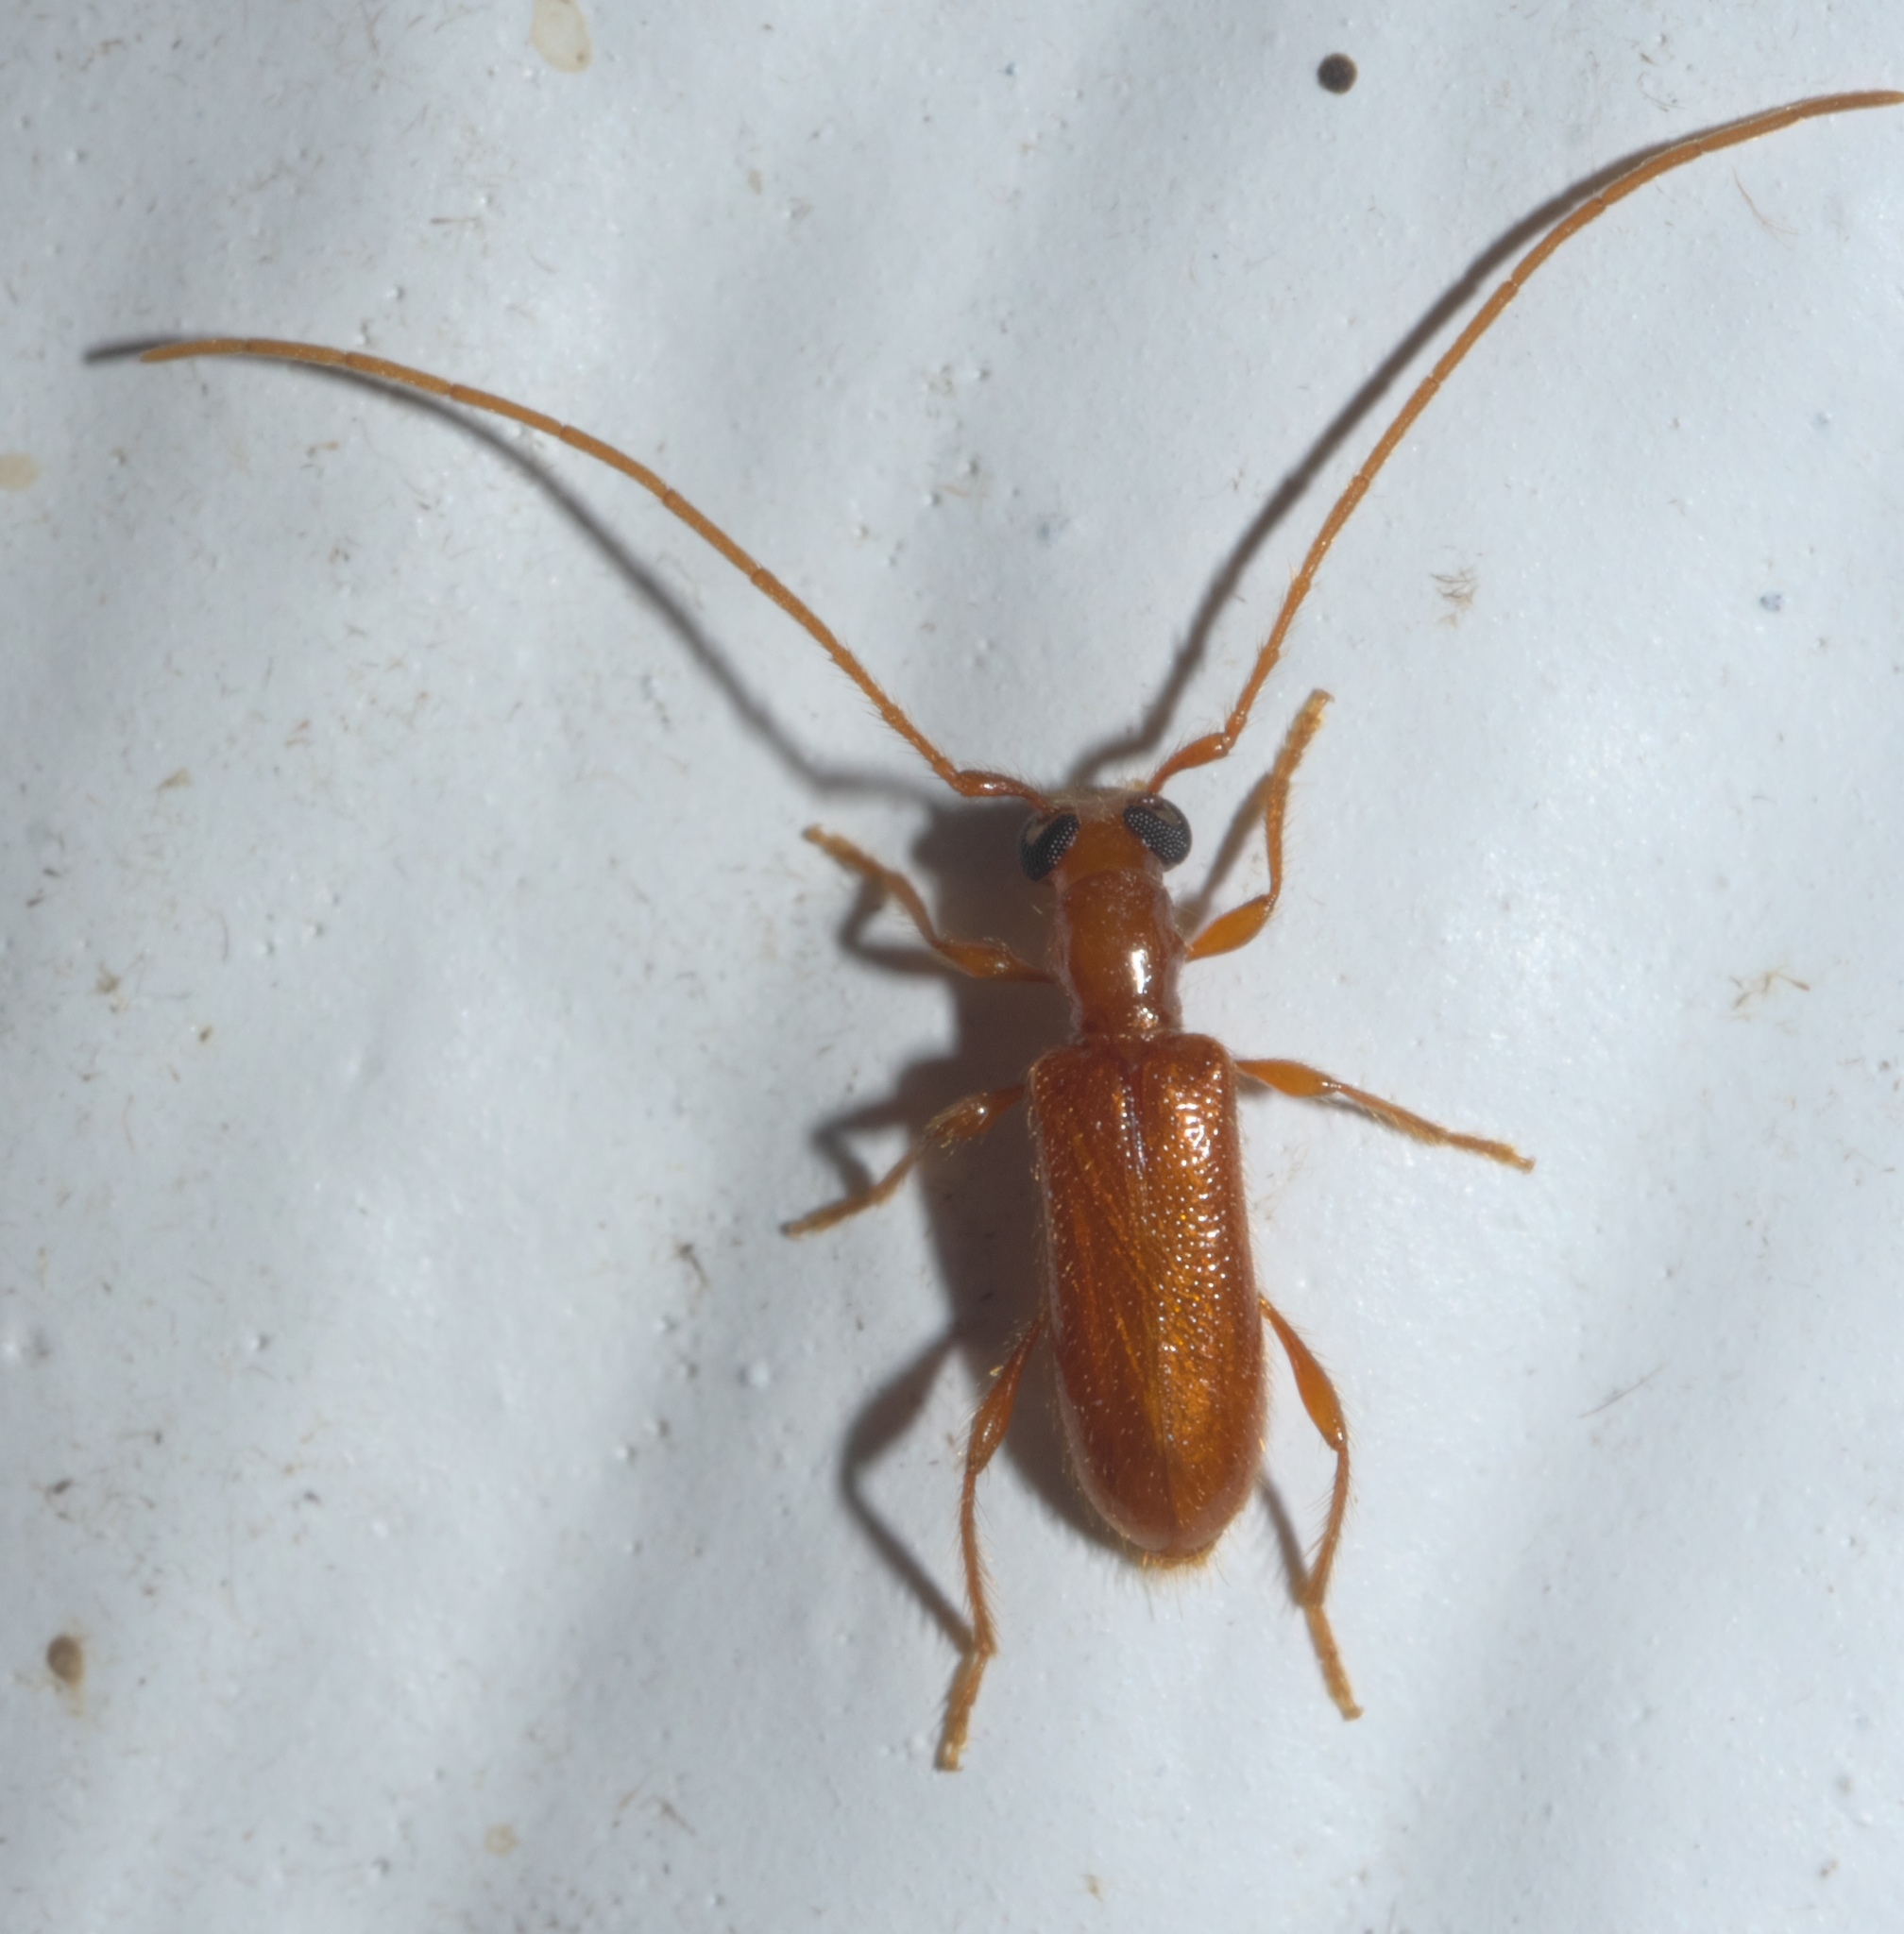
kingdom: Animalia
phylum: Arthropoda
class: Insecta
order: Coleoptera
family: Cerambycidae
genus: Obrium
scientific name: Obrium rufulum
